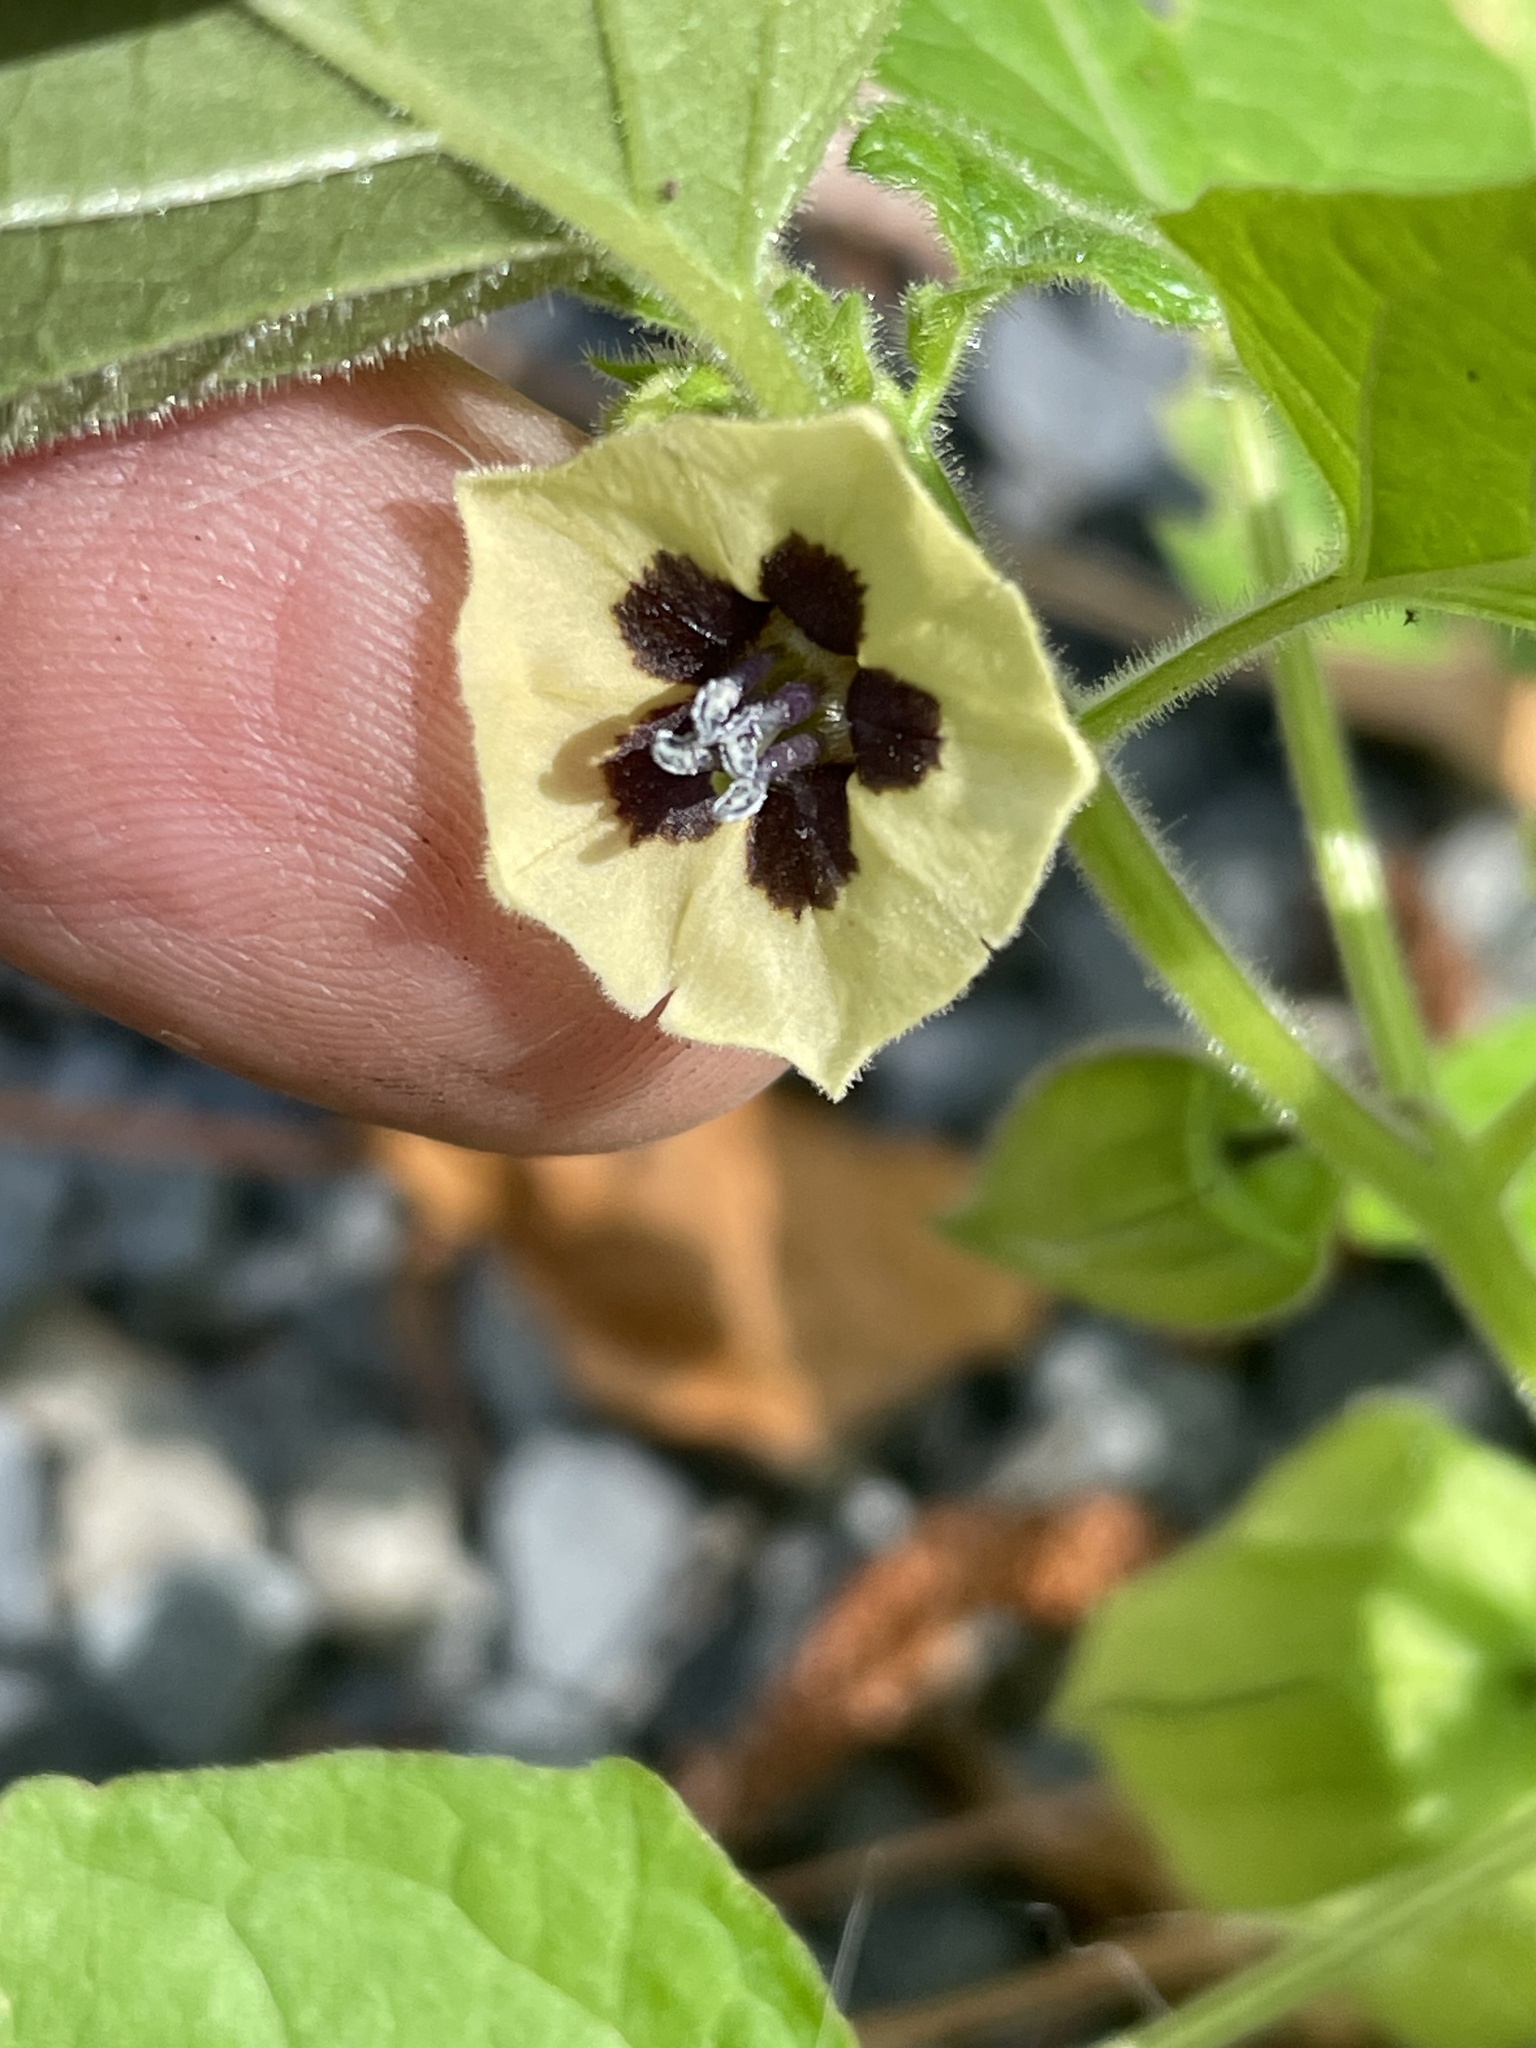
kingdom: Plantae
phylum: Tracheophyta
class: Magnoliopsida
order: Solanales
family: Solanaceae
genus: Physalis
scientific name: Physalis heterophylla
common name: Clammy ground-cherry
